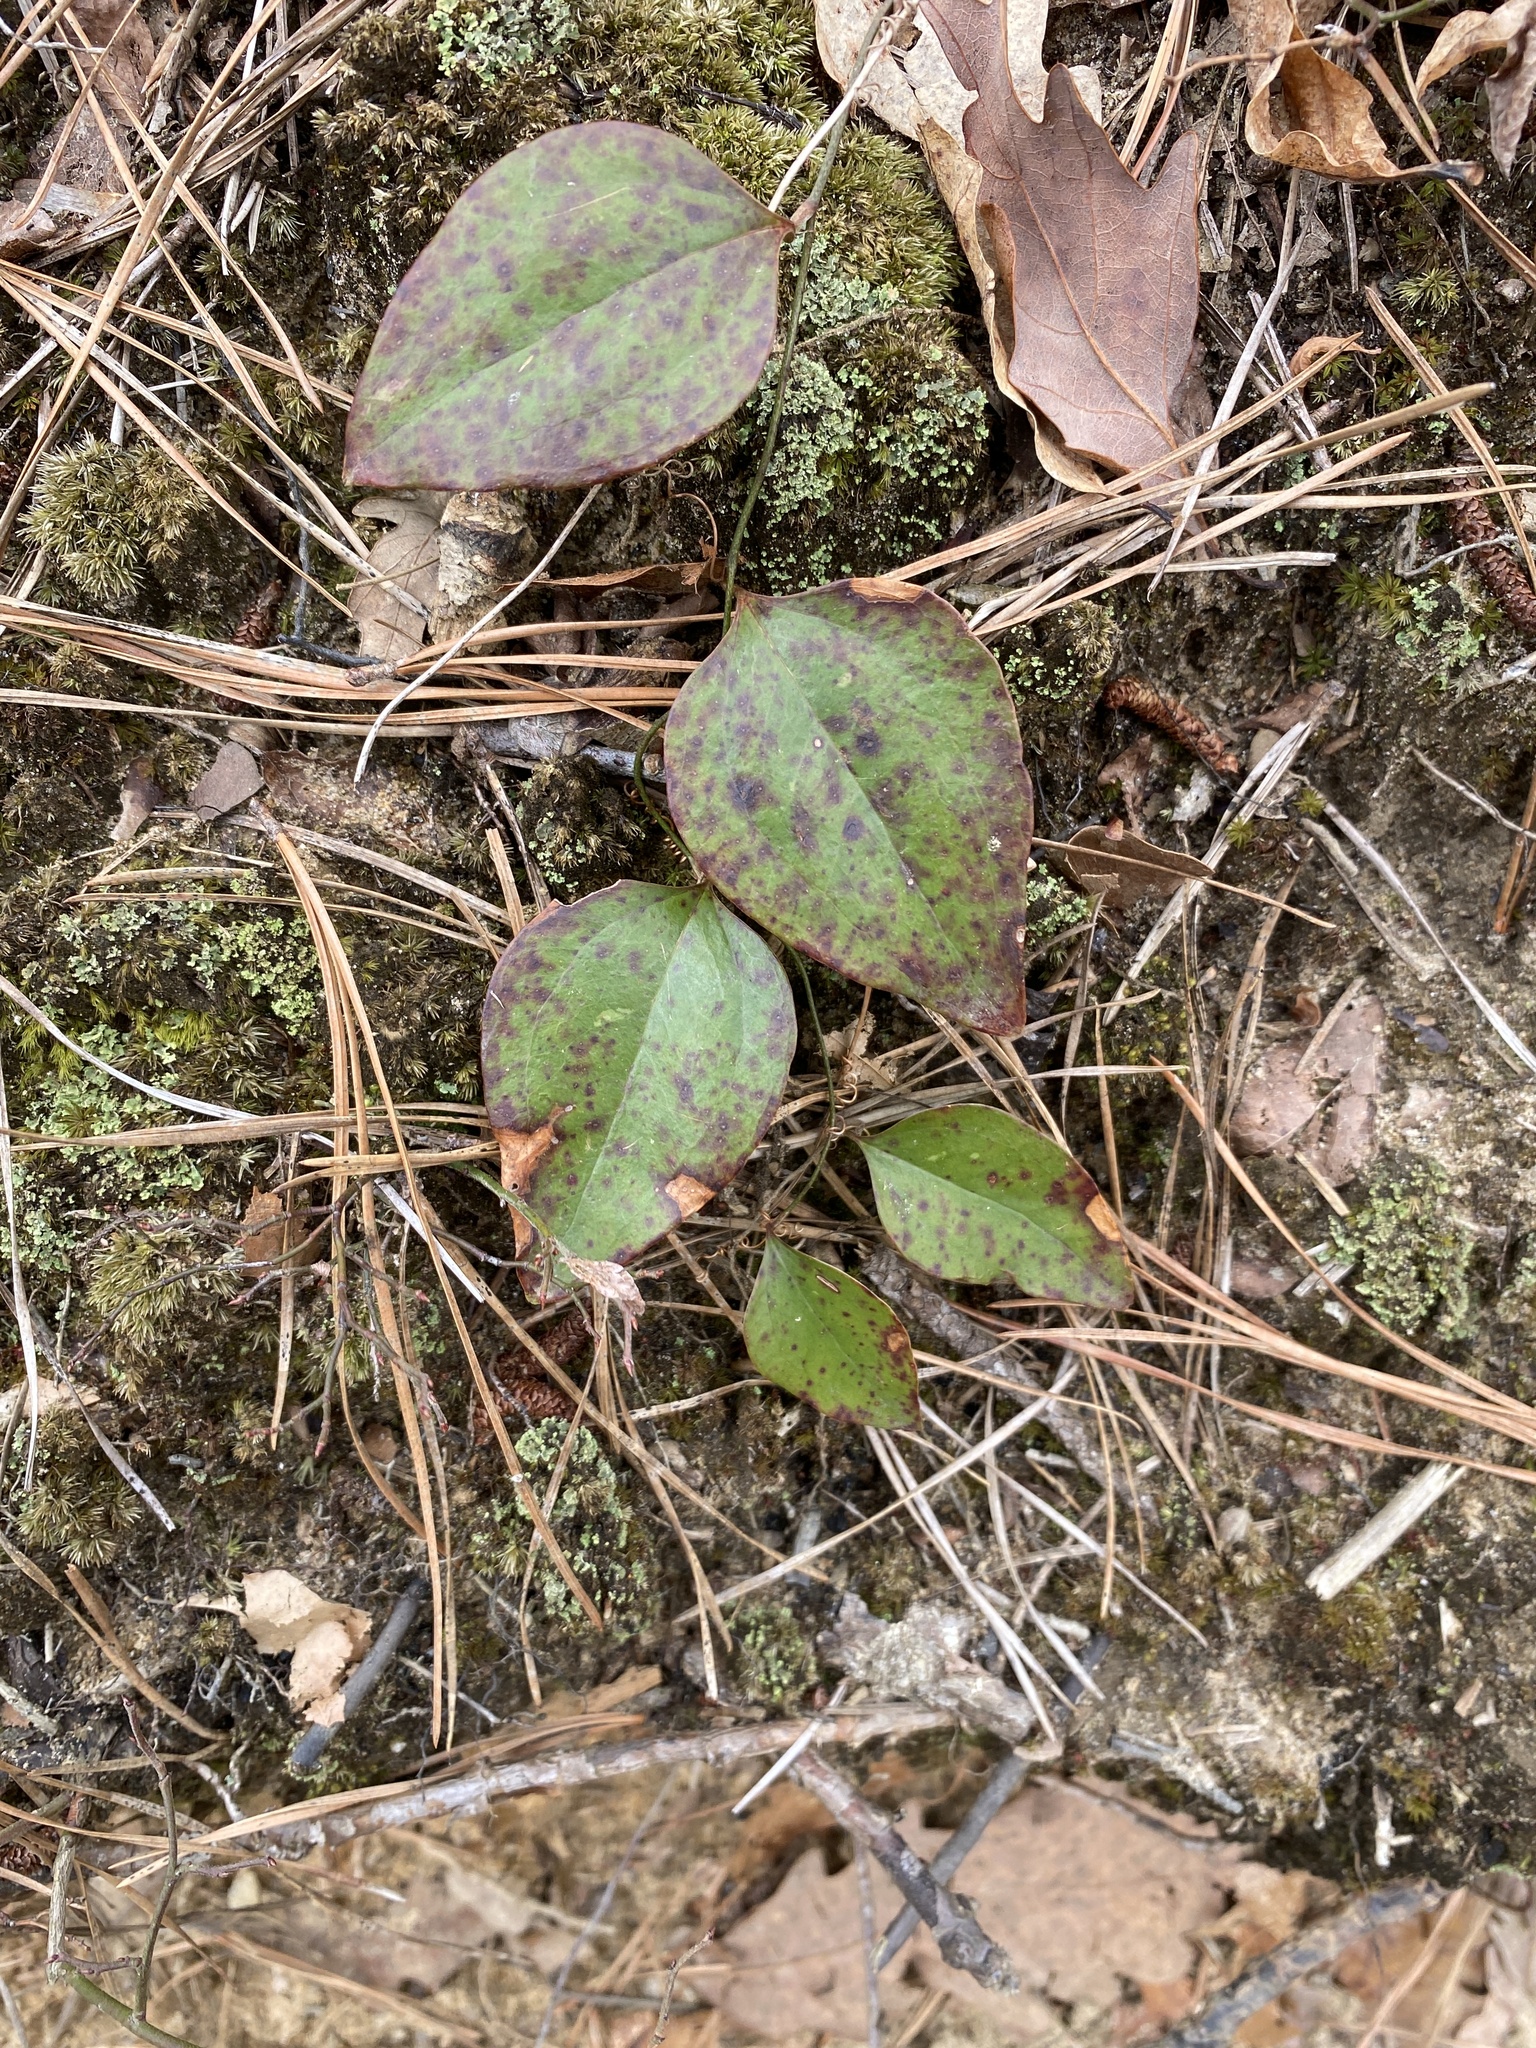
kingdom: Plantae
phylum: Tracheophyta
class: Liliopsida
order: Liliales
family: Smilacaceae
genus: Smilax
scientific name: Smilax glauca
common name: Cat greenbrier
